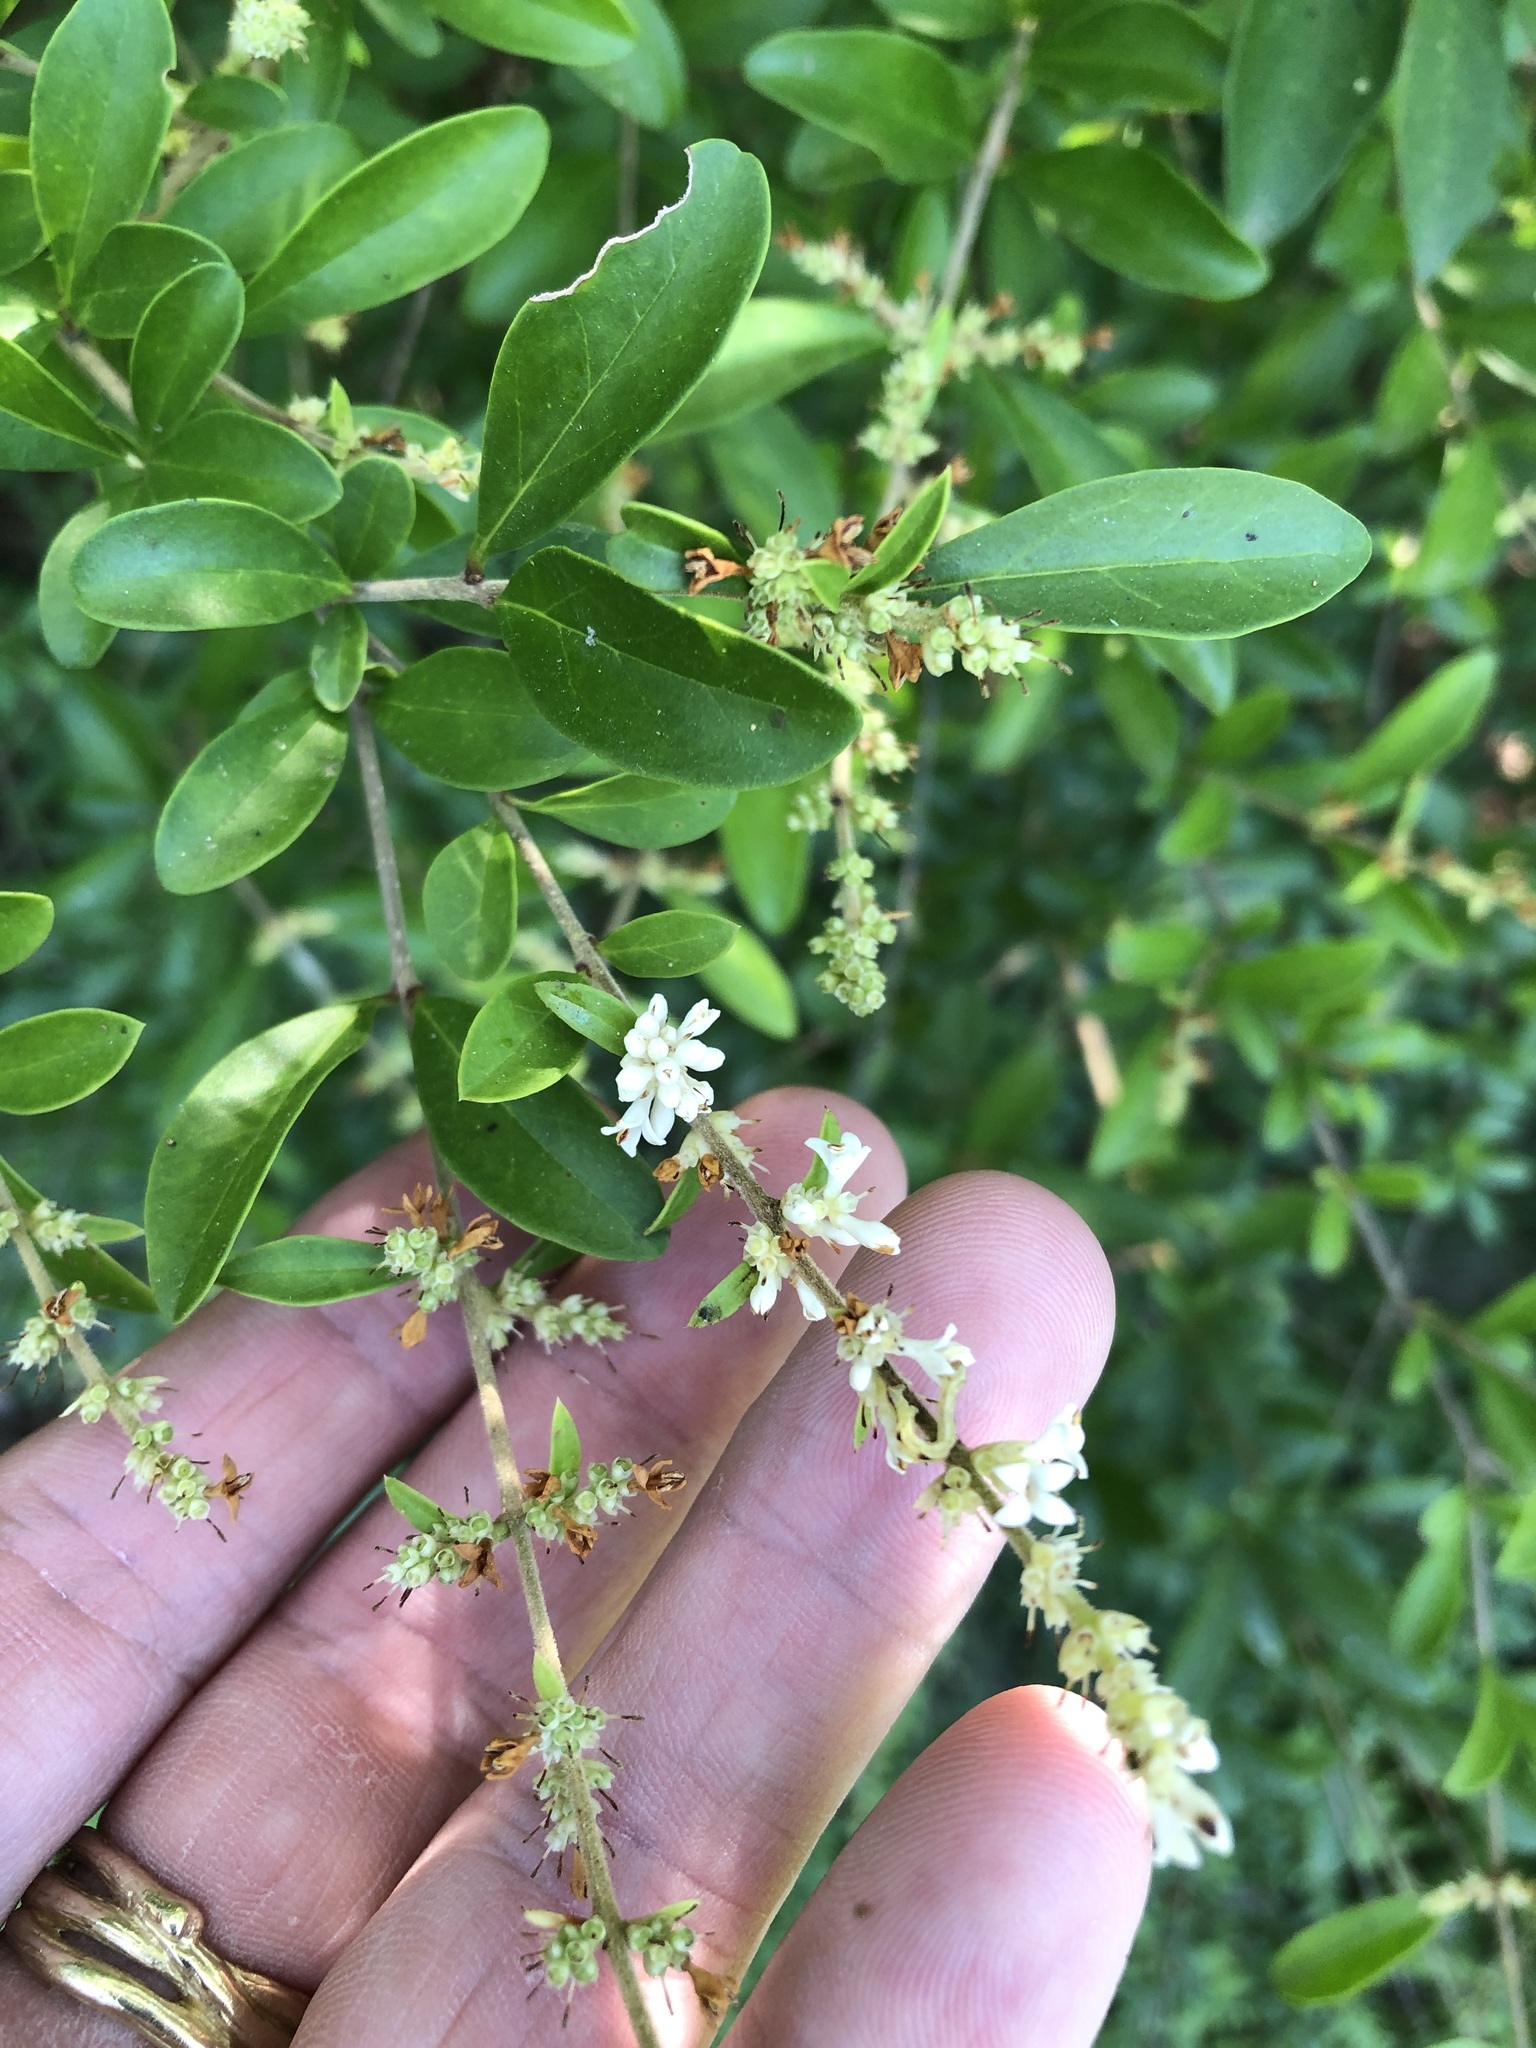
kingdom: Plantae
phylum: Tracheophyta
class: Magnoliopsida
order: Lamiales
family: Oleaceae
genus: Ligustrum
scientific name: Ligustrum quihoui
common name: Waxyleaf privet
